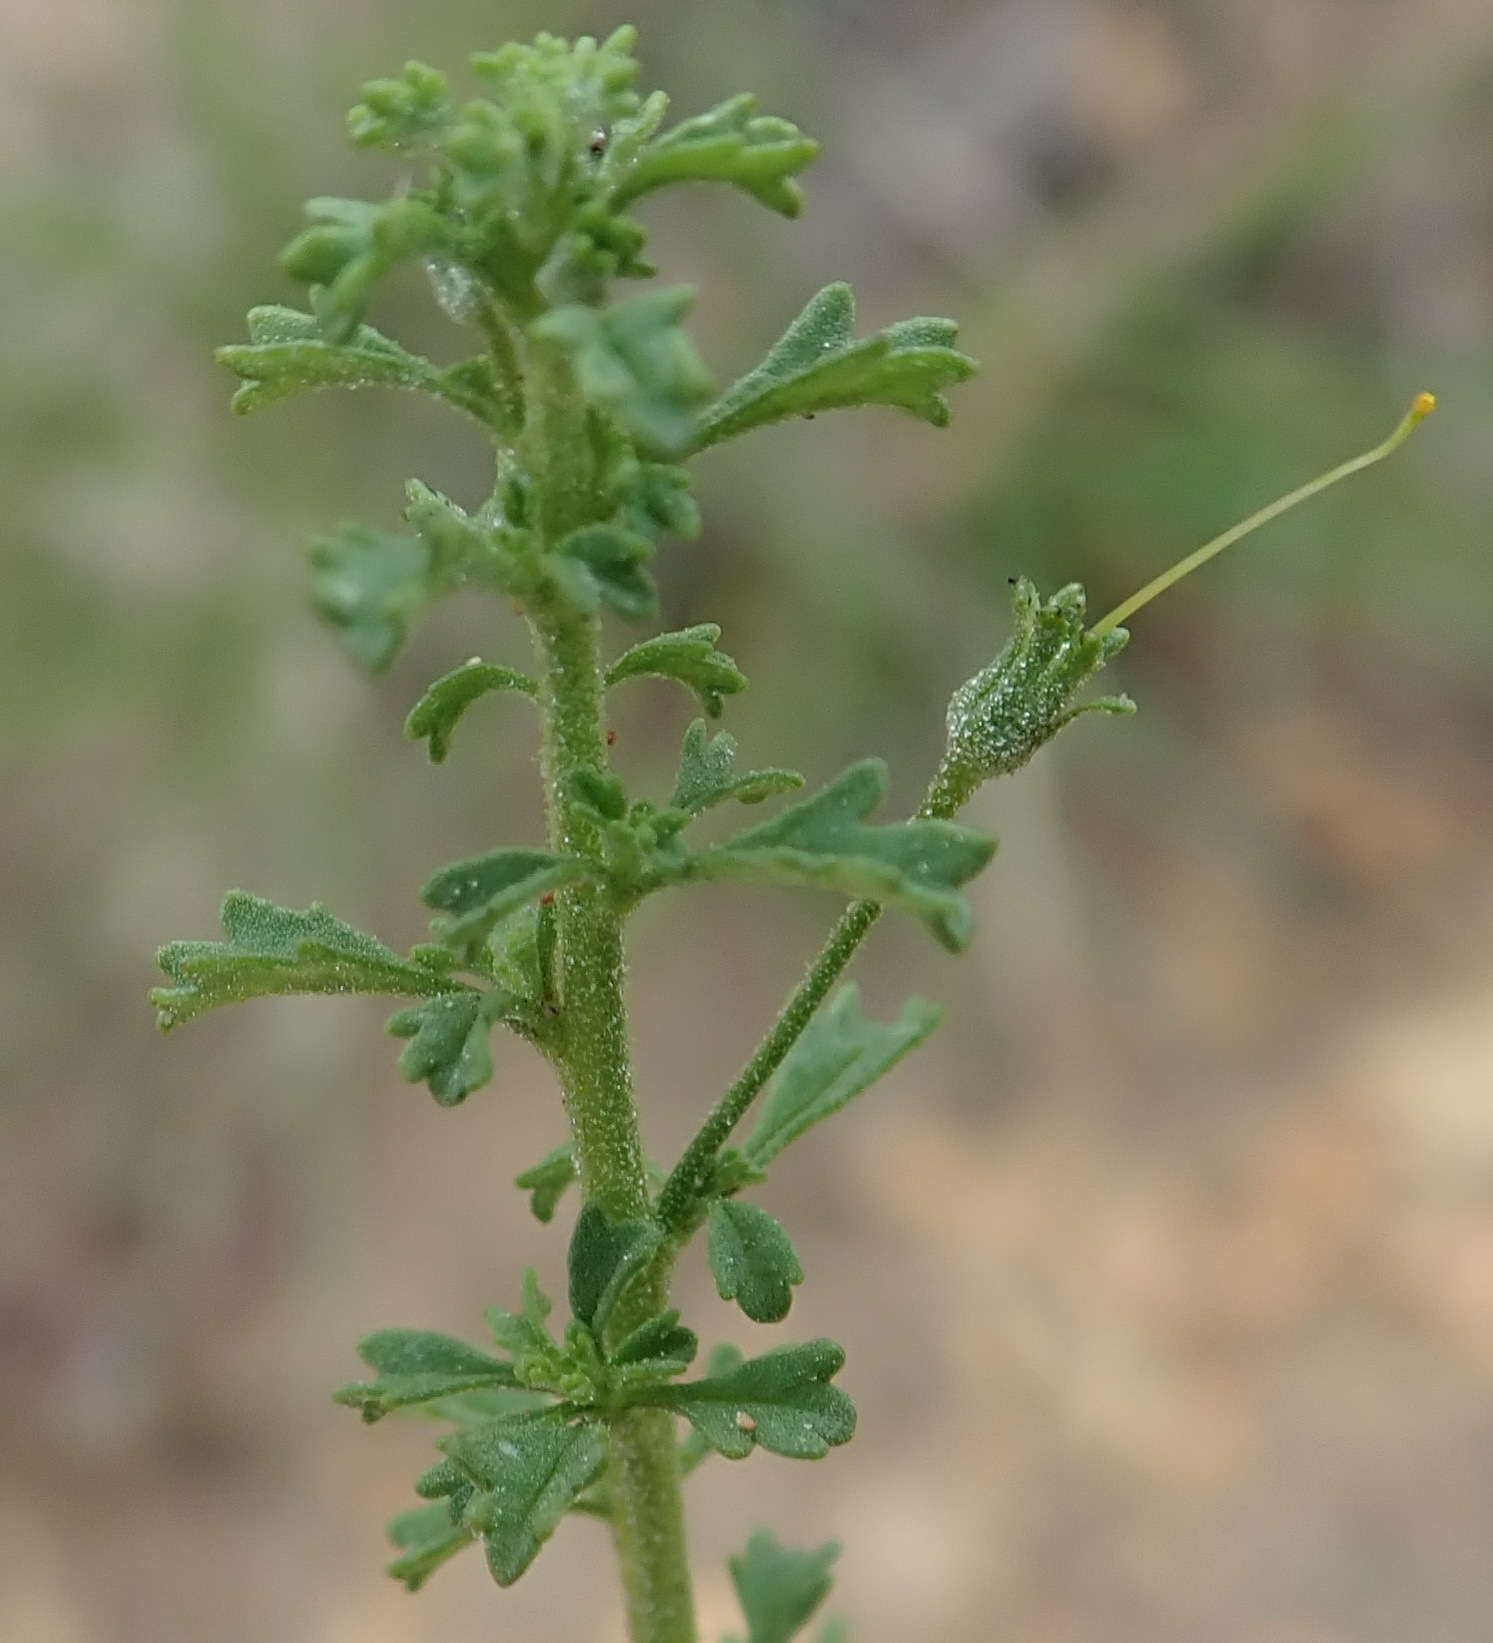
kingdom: Plantae
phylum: Tracheophyta
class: Magnoliopsida
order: Lamiales
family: Scrophulariaceae
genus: Jamesbrittenia
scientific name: Jamesbrittenia argentea
